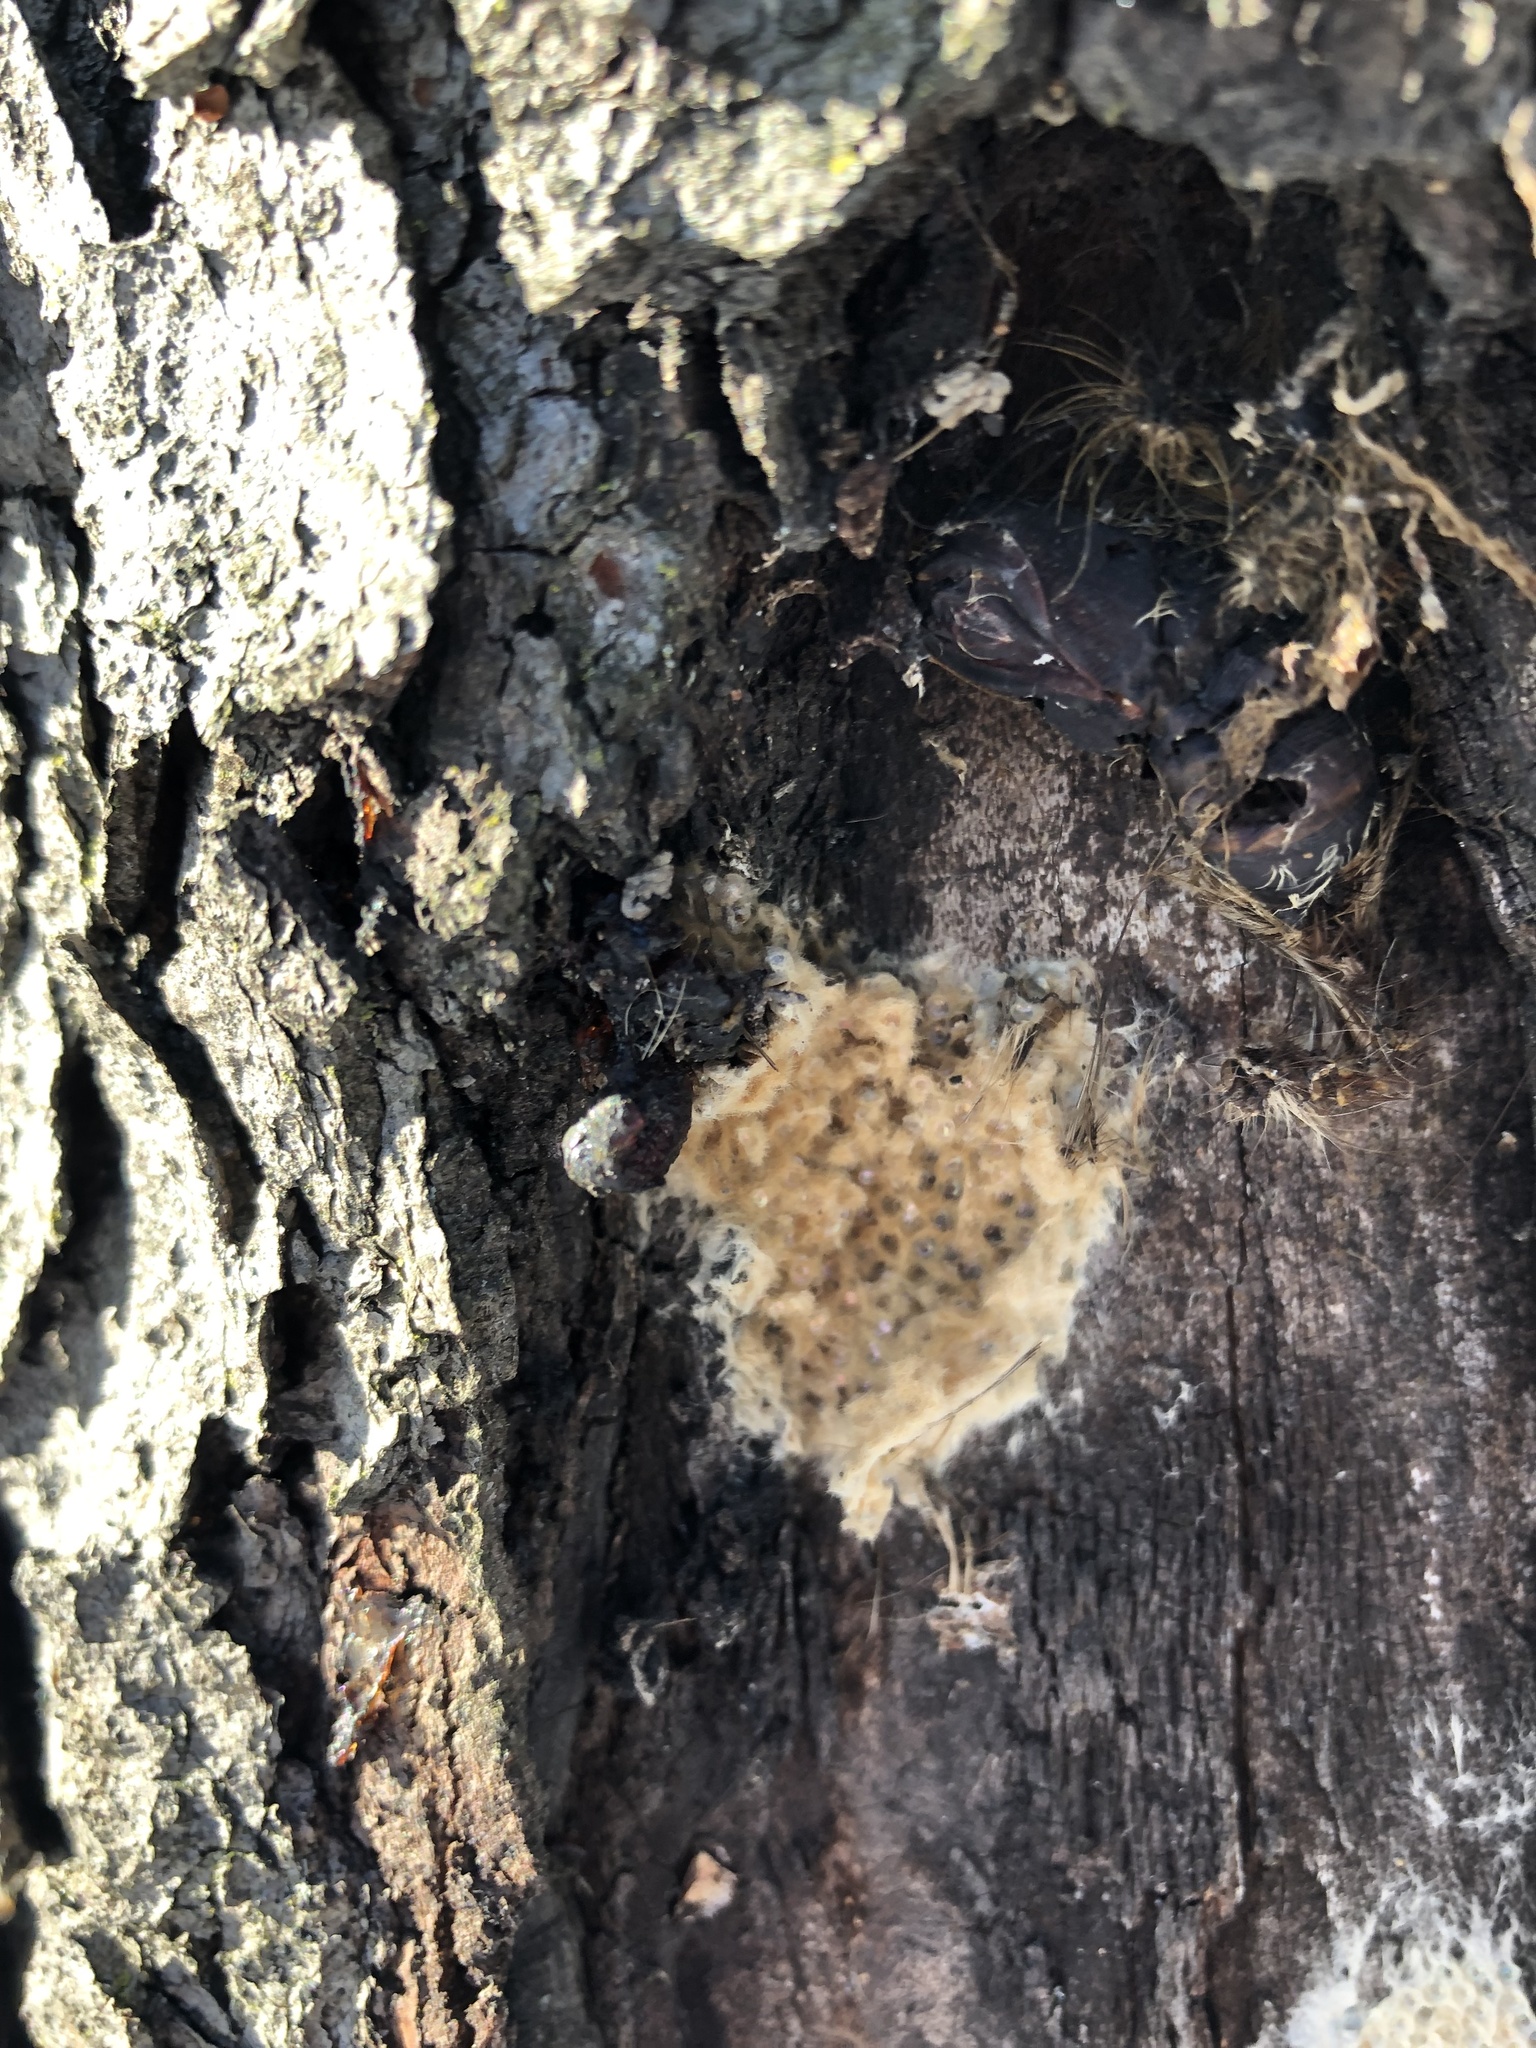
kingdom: Animalia
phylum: Arthropoda
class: Insecta
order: Lepidoptera
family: Erebidae
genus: Lymantria
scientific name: Lymantria dispar
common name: Gypsy moth
